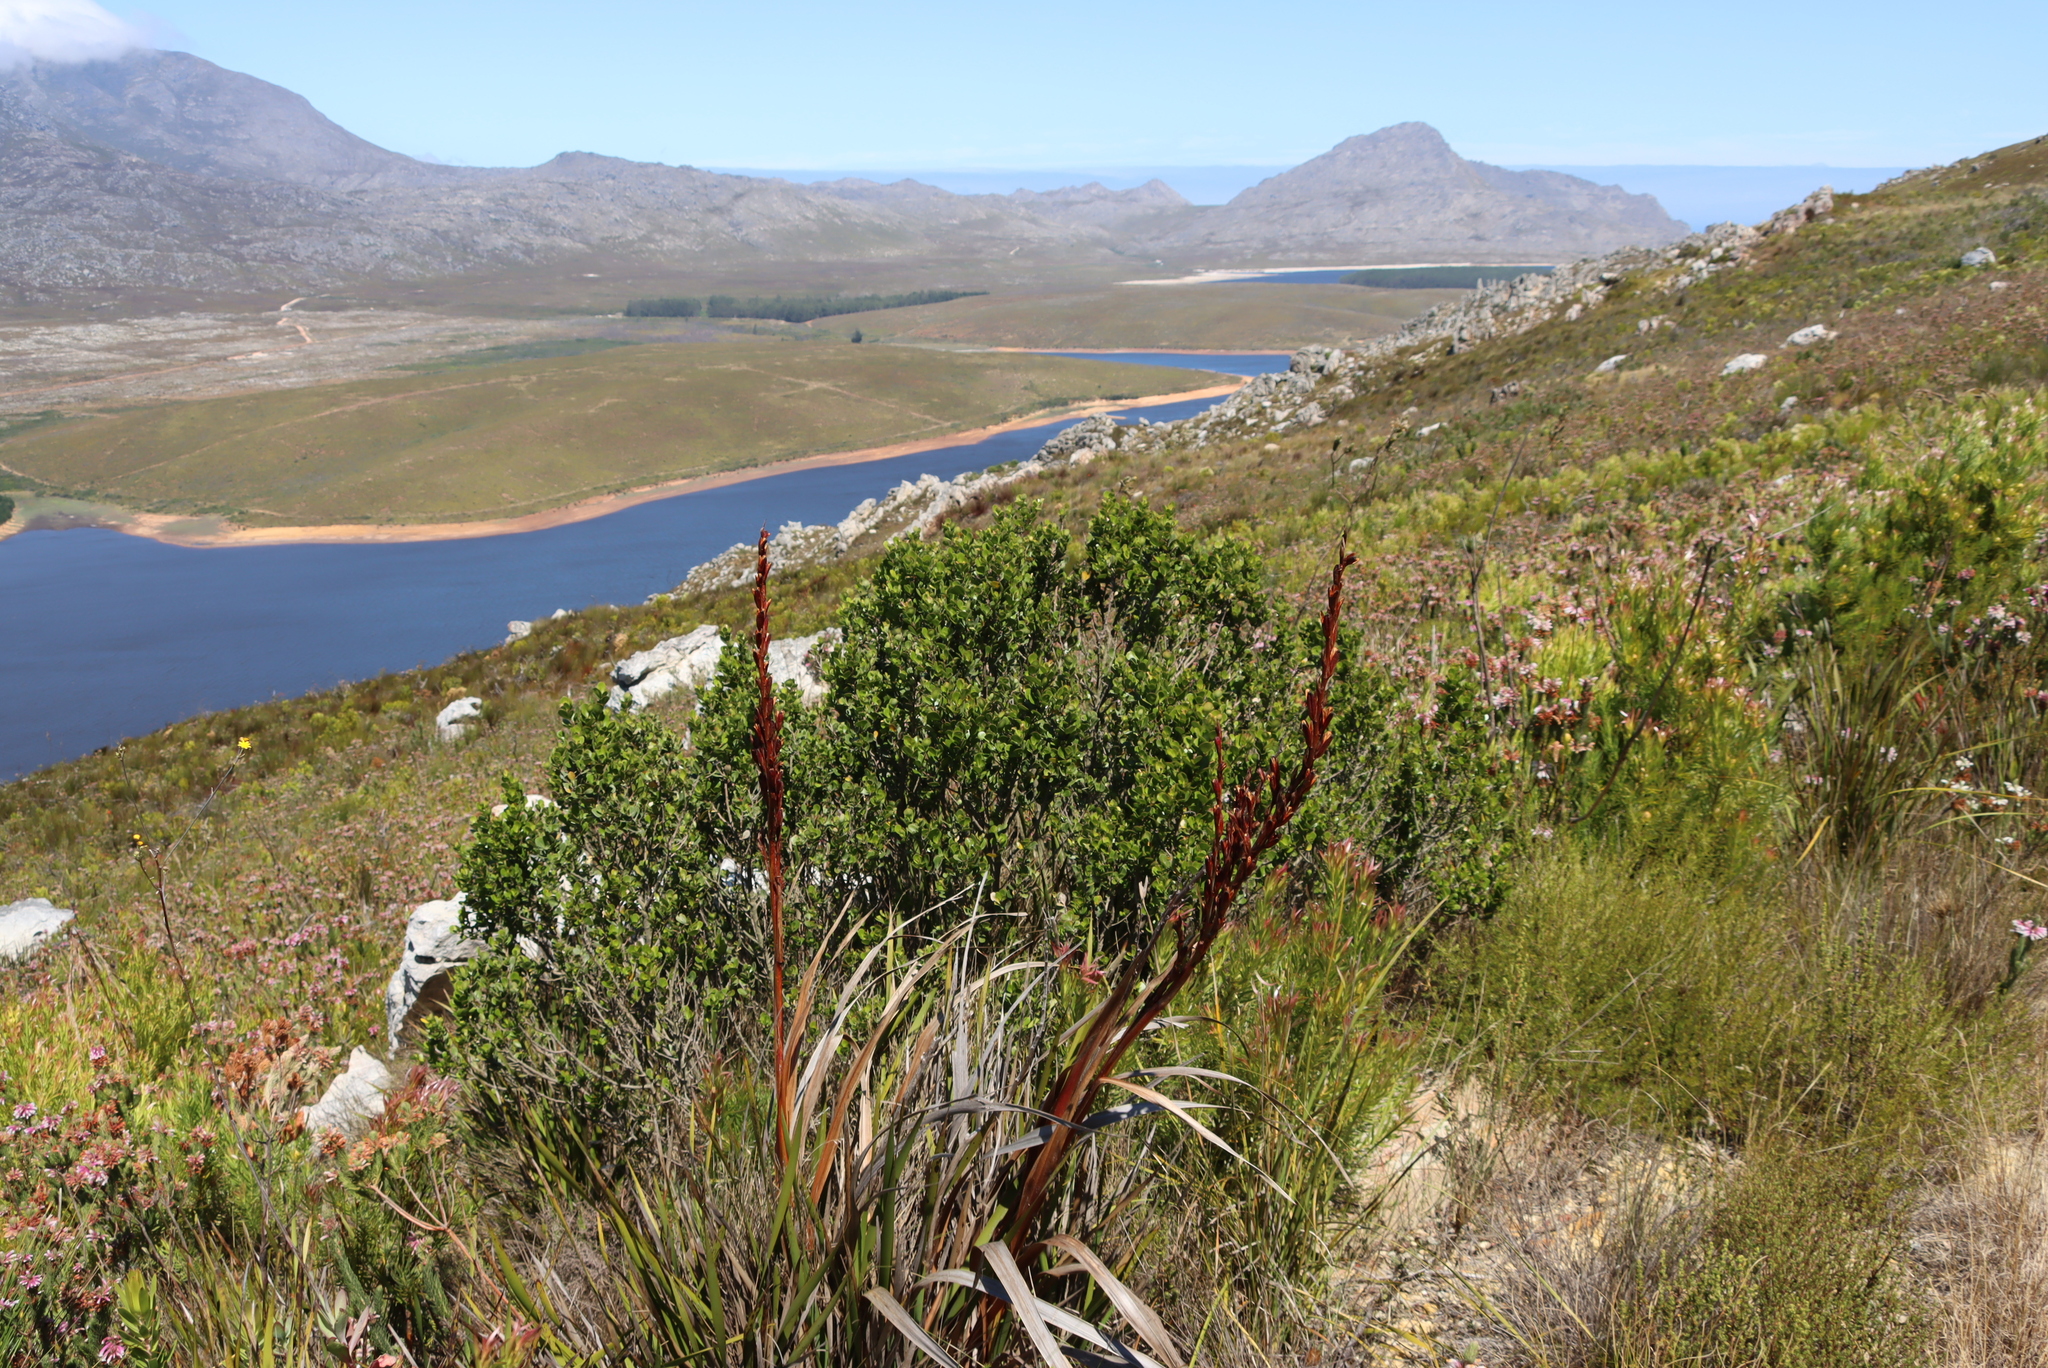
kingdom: Plantae
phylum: Tracheophyta
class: Magnoliopsida
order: Sapindales
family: Anacardiaceae
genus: Searsia
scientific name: Searsia lucida
